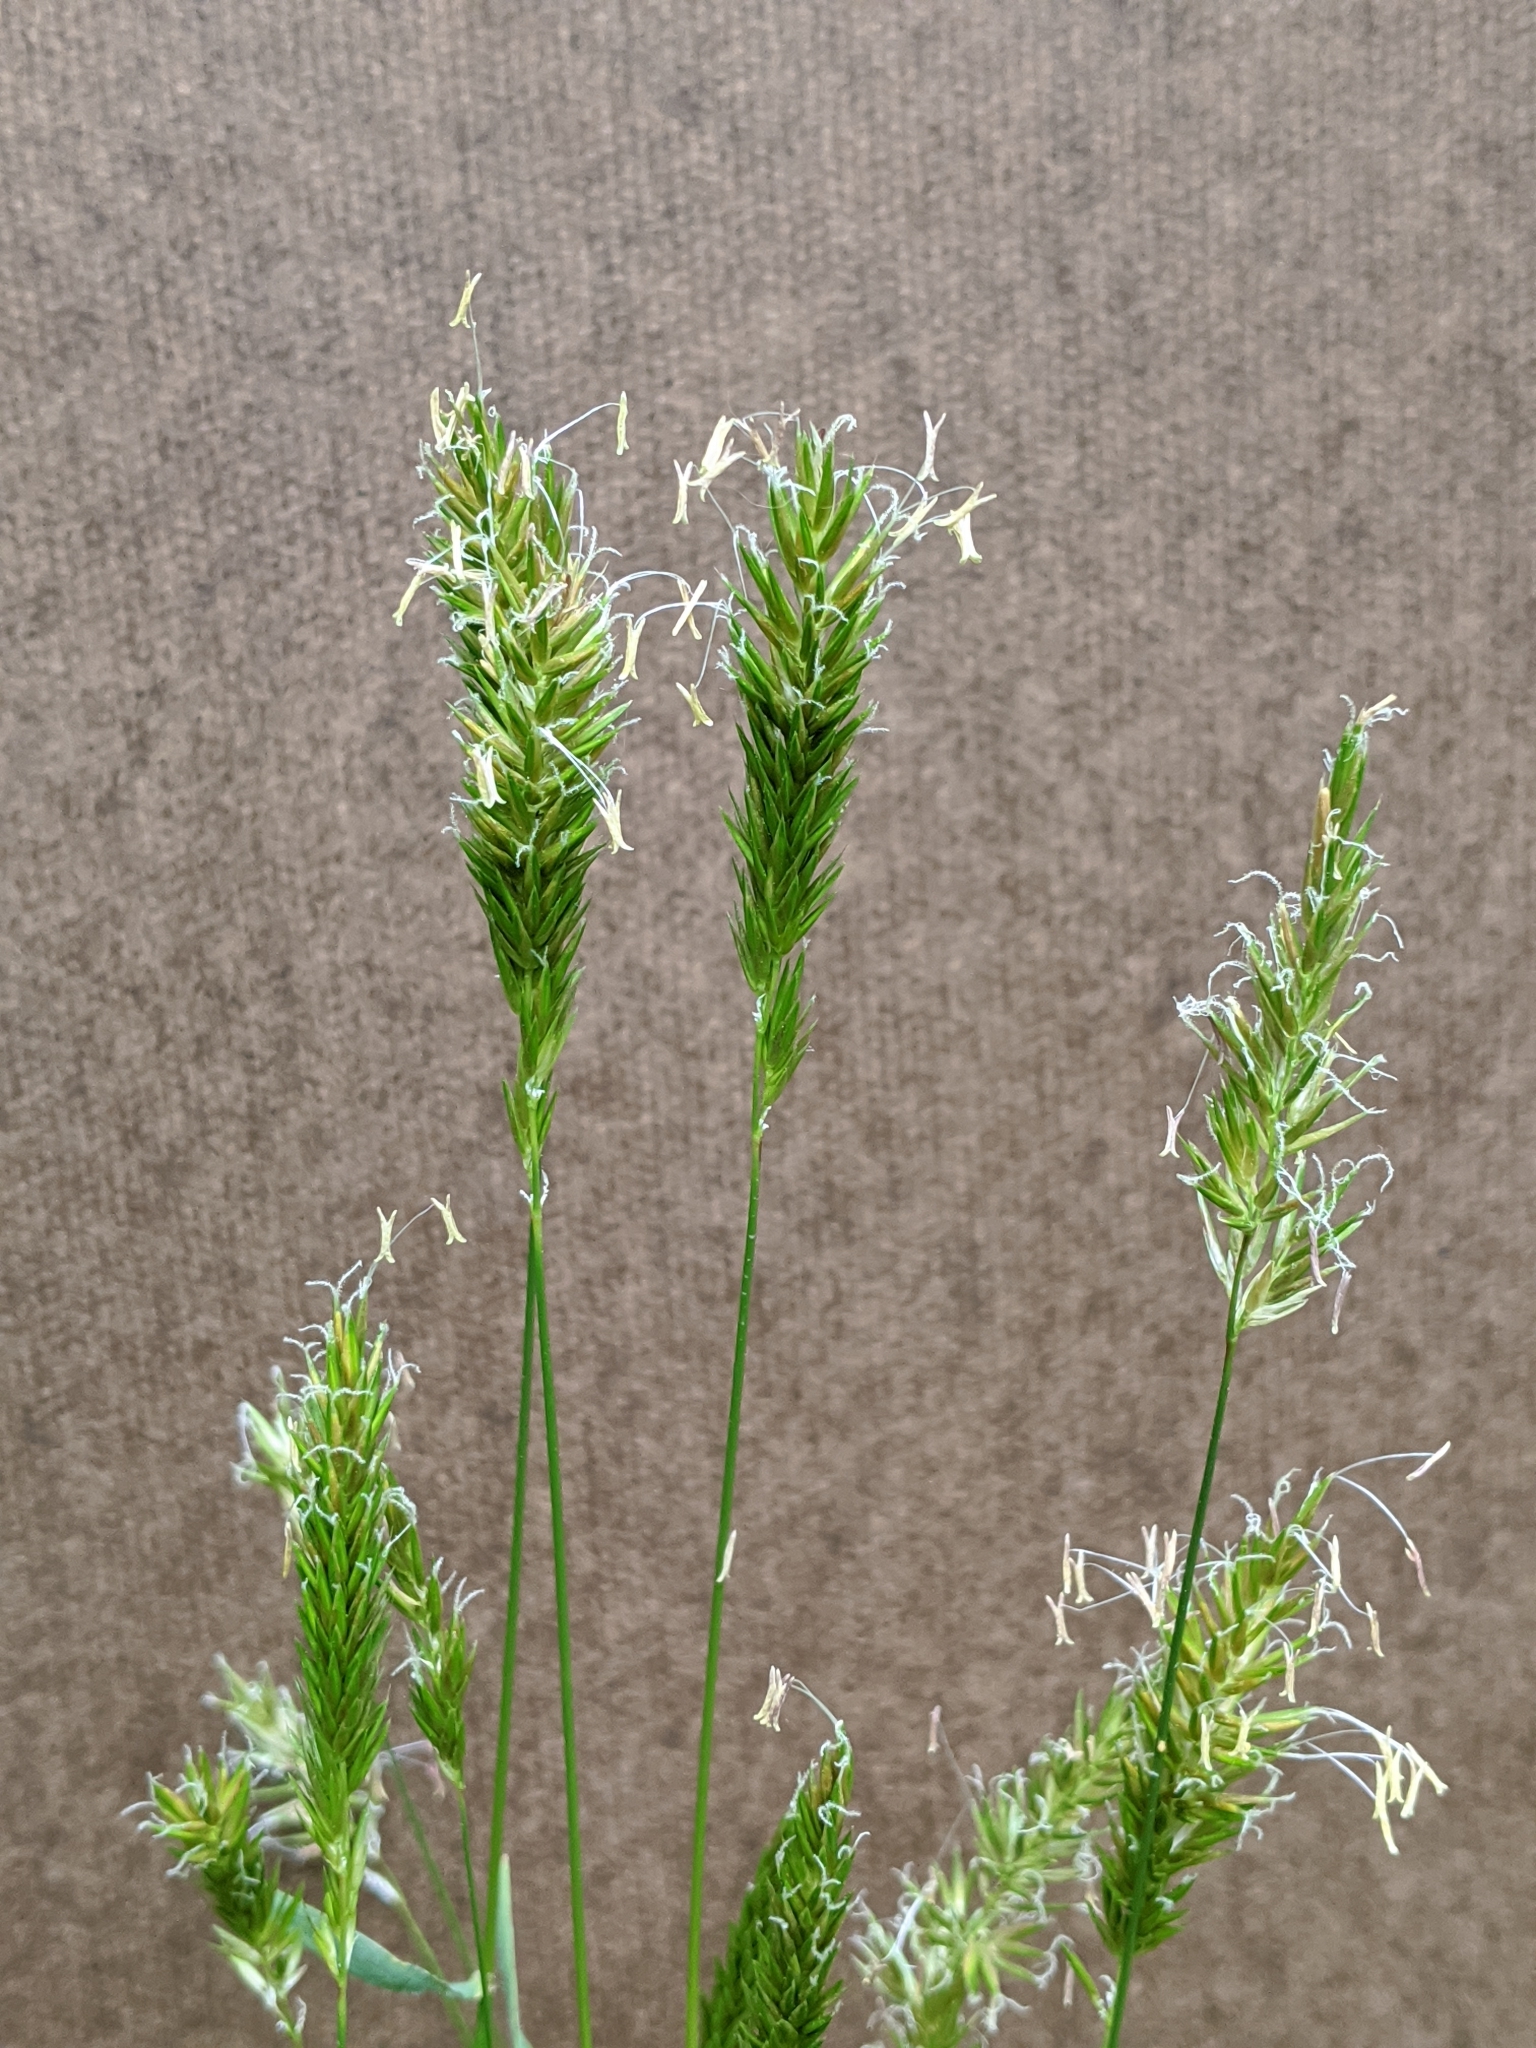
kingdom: Plantae
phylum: Tracheophyta
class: Liliopsida
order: Poales
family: Poaceae
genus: Anthoxanthum
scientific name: Anthoxanthum odoratum
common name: Sweet vernalgrass
